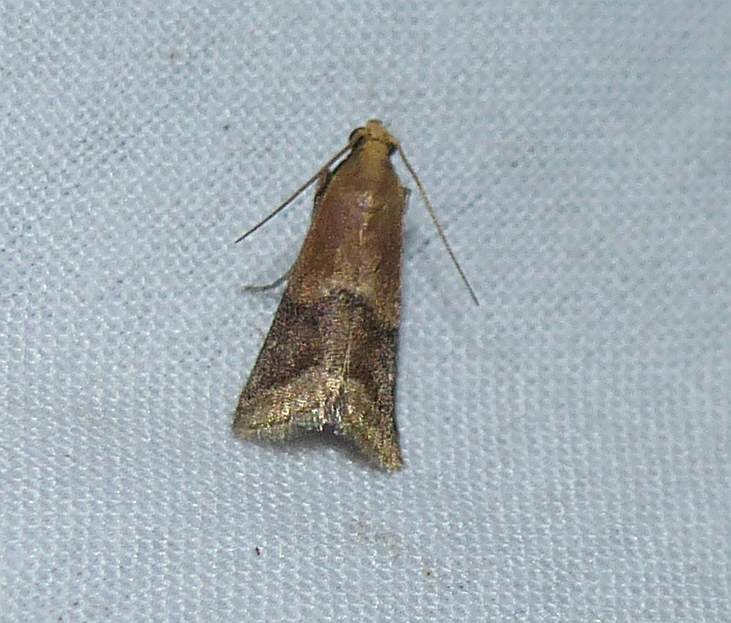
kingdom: Animalia
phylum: Arthropoda
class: Insecta
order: Lepidoptera
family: Pyralidae
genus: Eulogia
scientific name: Eulogia ochrifrontella
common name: Broad-banded eulogia moth
